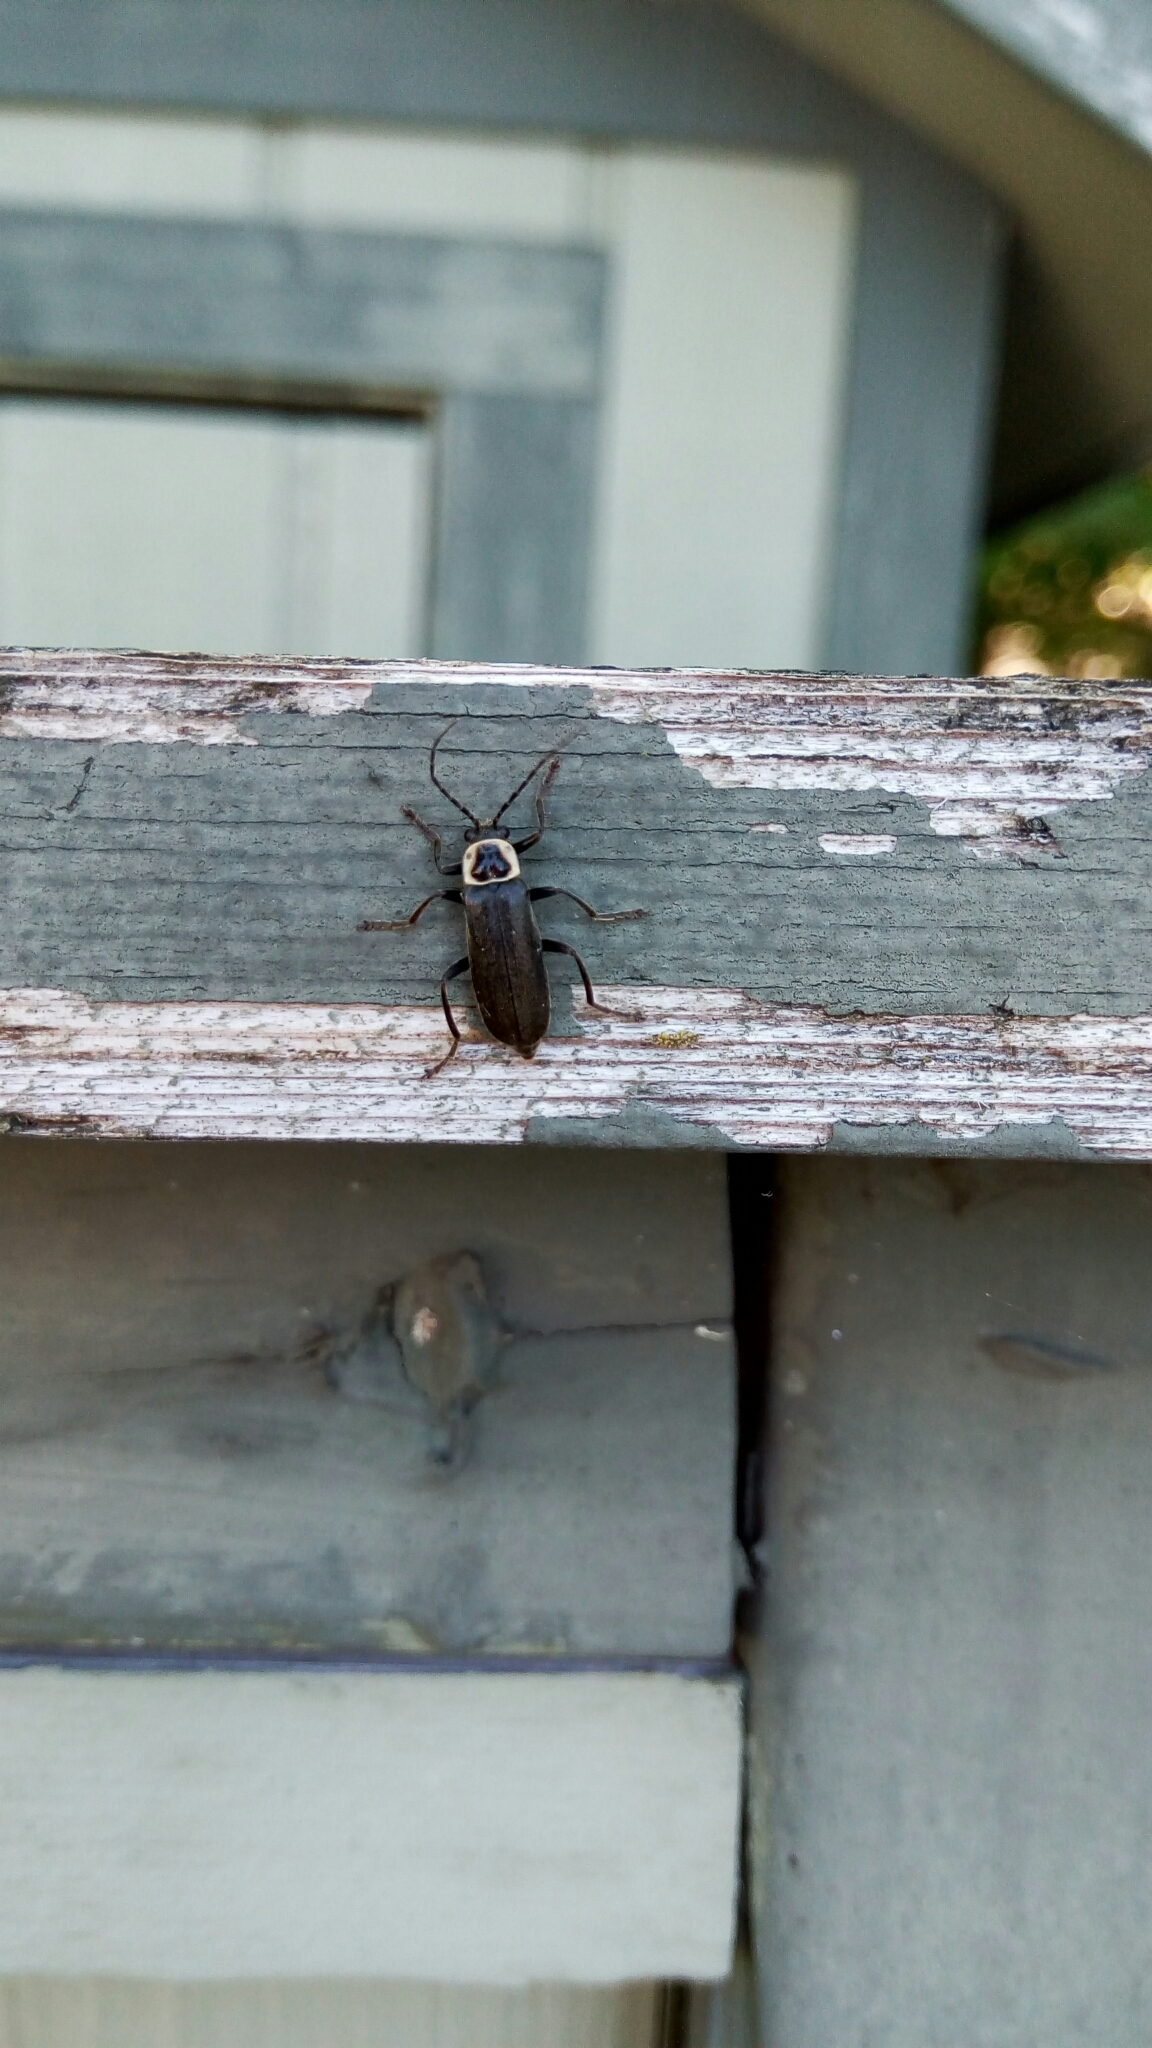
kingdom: Animalia
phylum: Arthropoda
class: Insecta
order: Coleoptera
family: Cantharidae
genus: Rhaxonycha
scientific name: Rhaxonycha carolina
